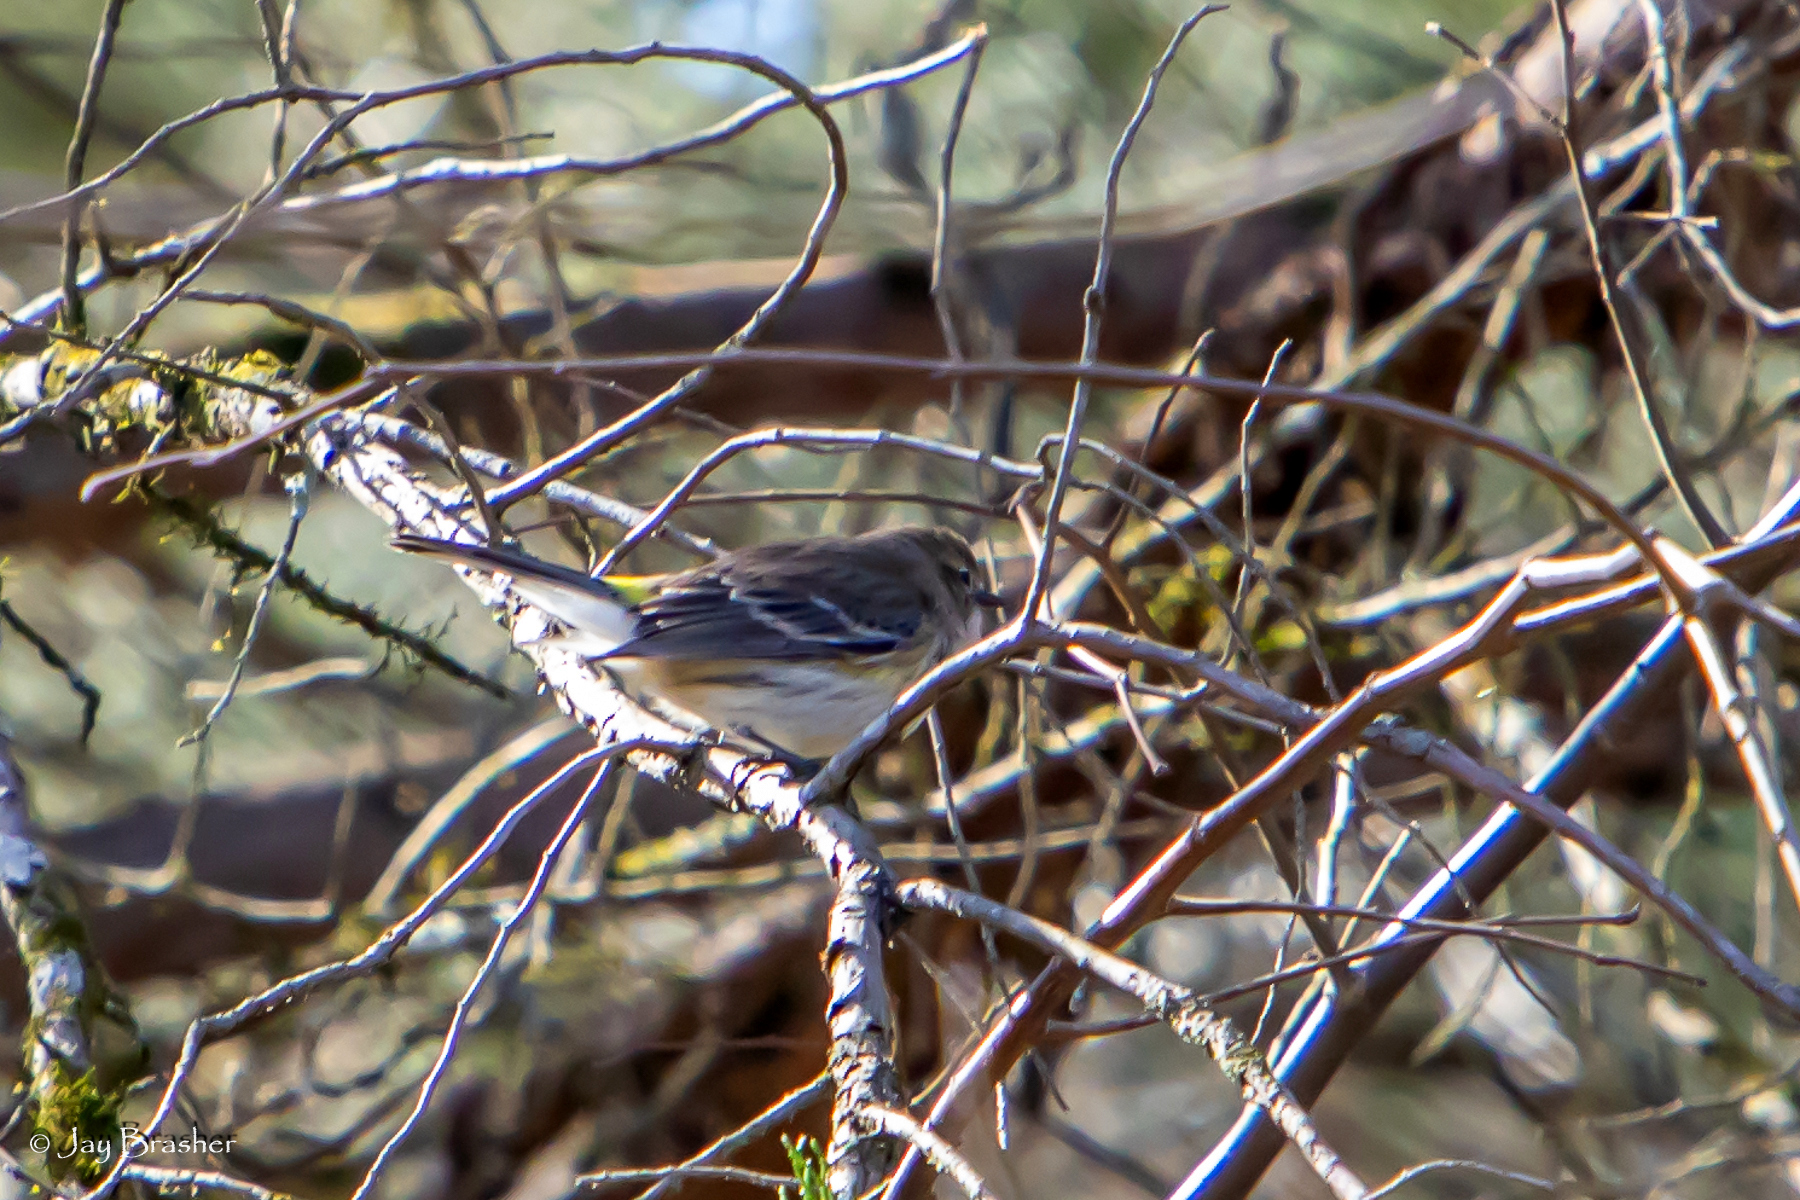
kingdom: Animalia
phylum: Chordata
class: Aves
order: Passeriformes
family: Parulidae
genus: Setophaga
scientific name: Setophaga coronata
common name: Myrtle warbler
